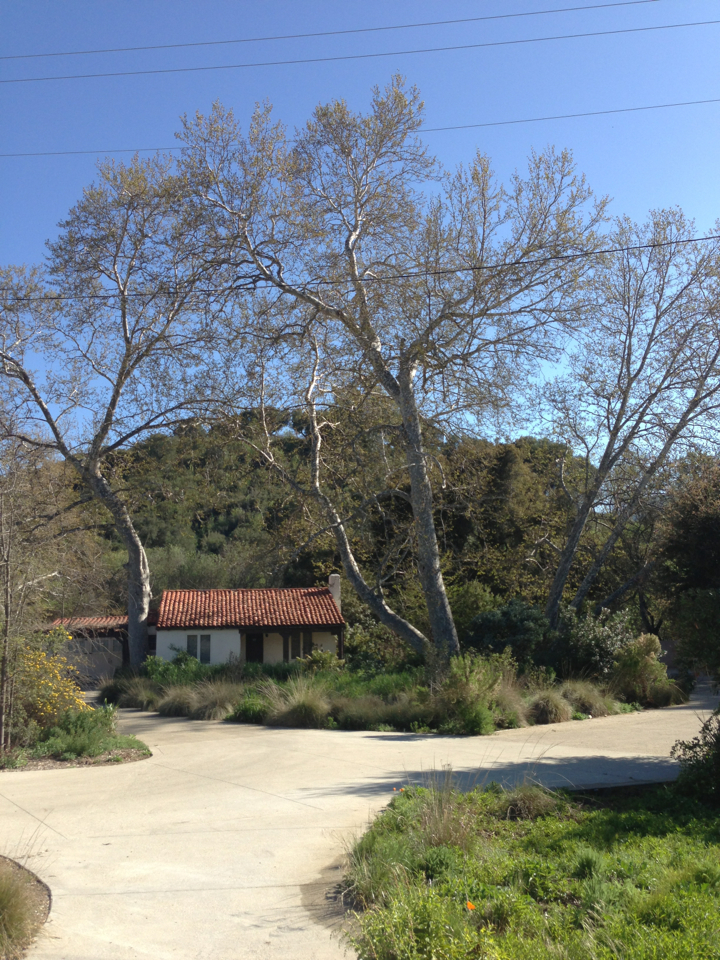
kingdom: Plantae
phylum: Tracheophyta
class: Magnoliopsida
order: Proteales
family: Platanaceae
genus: Platanus
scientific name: Platanus racemosa
